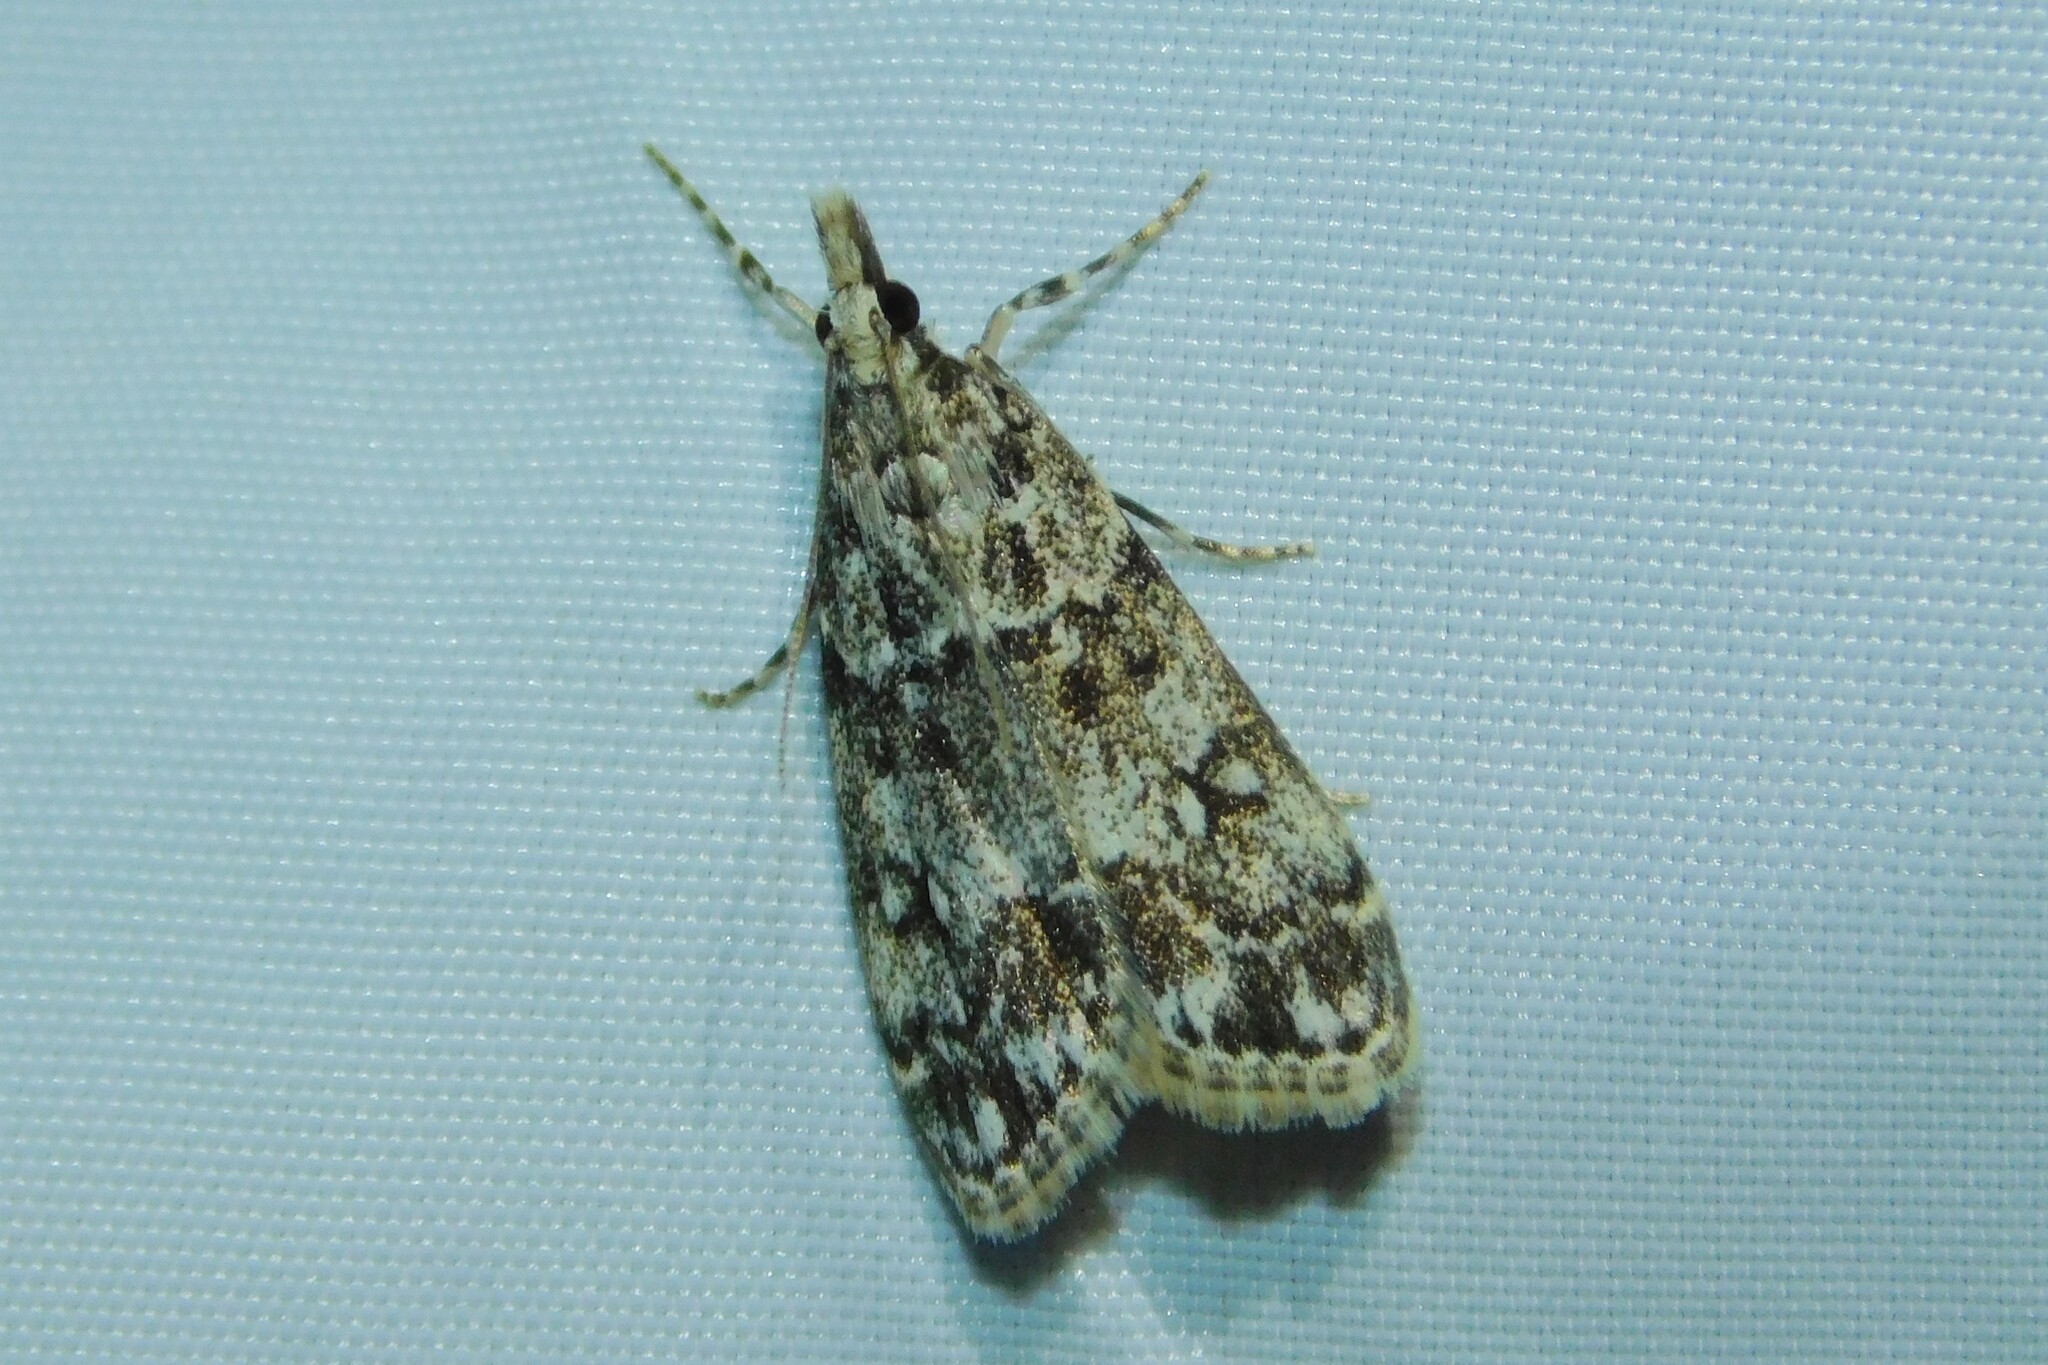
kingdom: Animalia
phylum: Arthropoda
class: Insecta
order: Lepidoptera
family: Crambidae
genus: Eudonia
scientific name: Eudonia lacustrata
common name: Little grey
